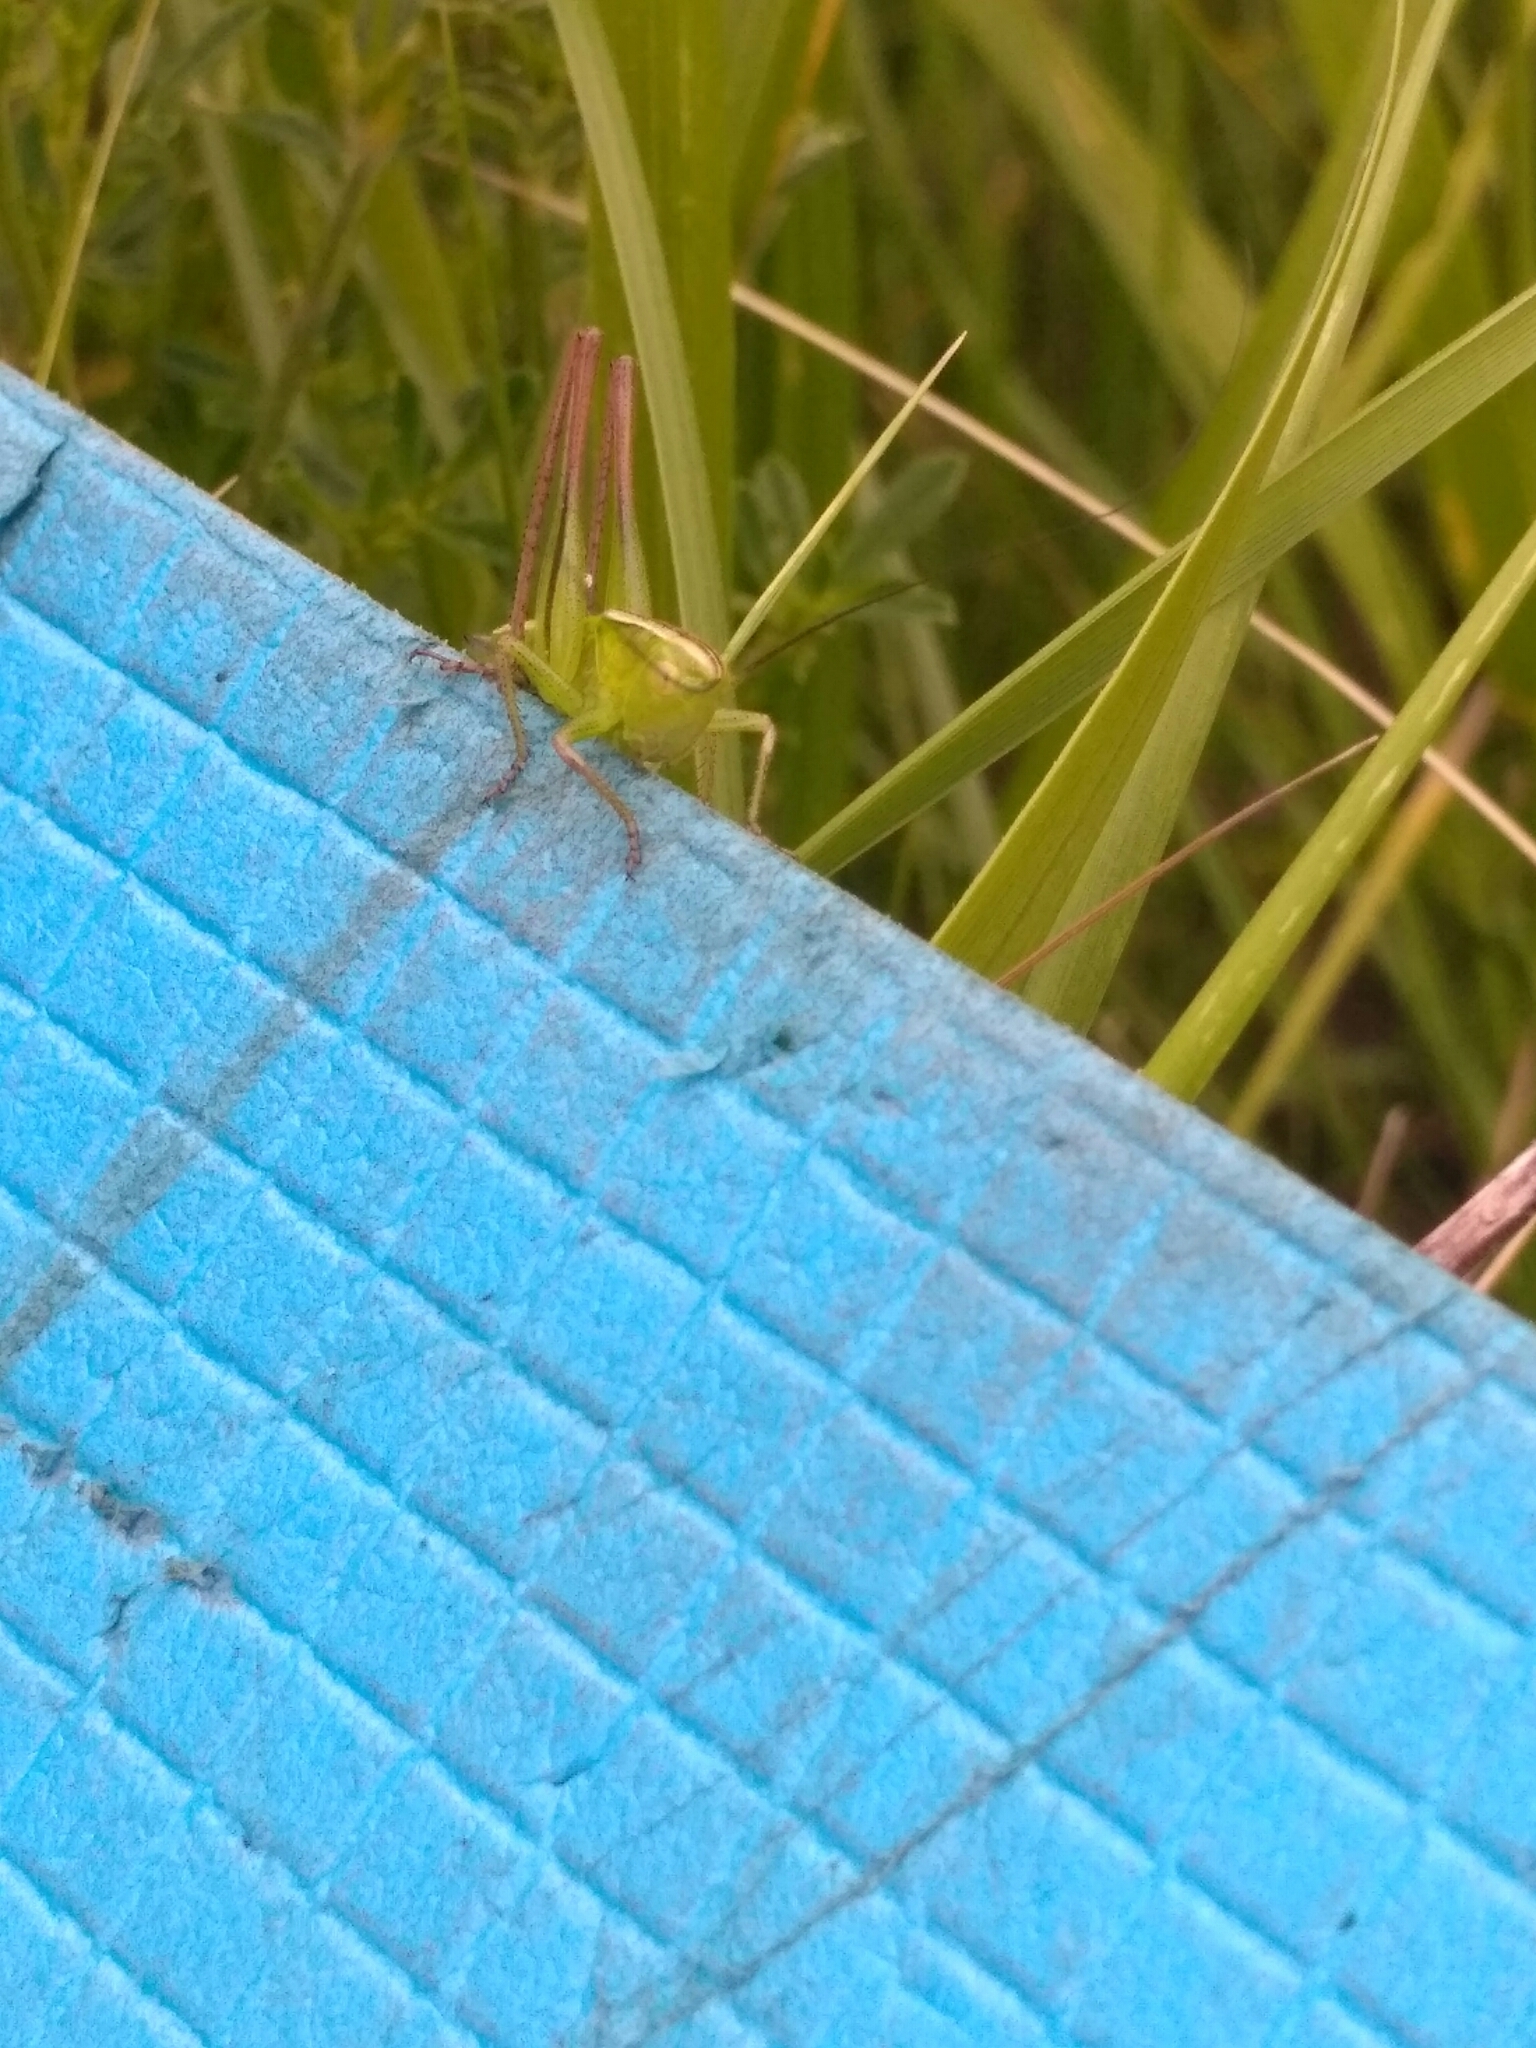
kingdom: Animalia
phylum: Arthropoda
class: Insecta
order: Orthoptera
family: Tettigoniidae
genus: Bicolorana
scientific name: Bicolorana bicolor
